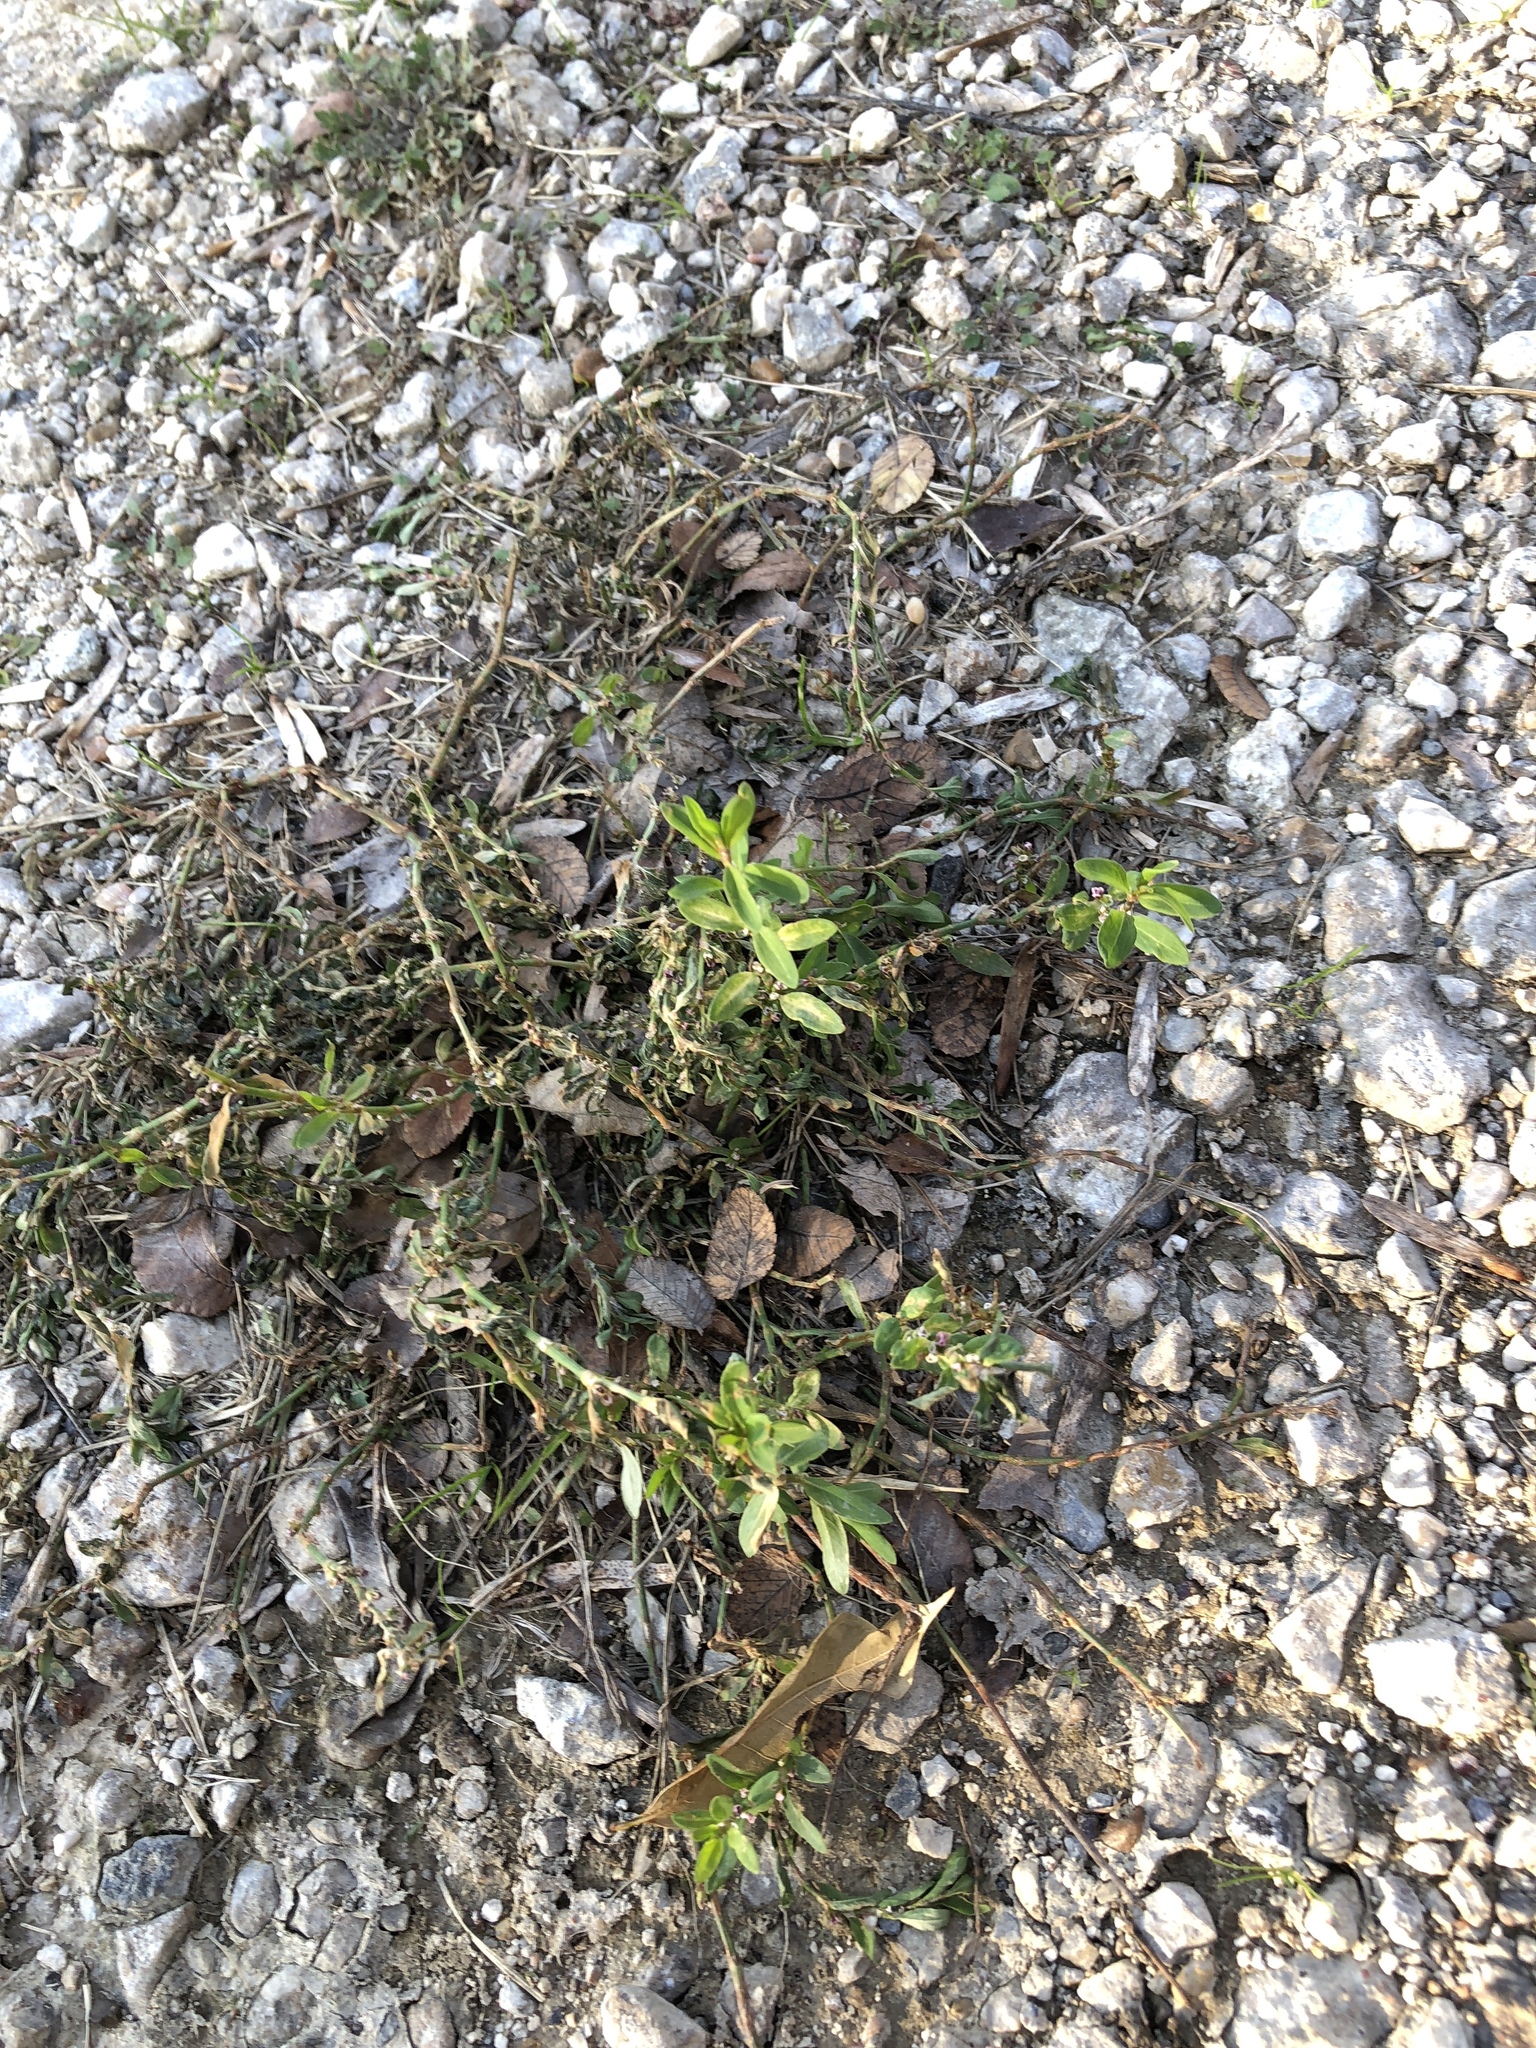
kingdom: Plantae
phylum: Tracheophyta
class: Magnoliopsida
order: Caryophyllales
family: Polygonaceae
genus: Polygonum
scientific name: Polygonum aviculare
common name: Prostrate knotweed
